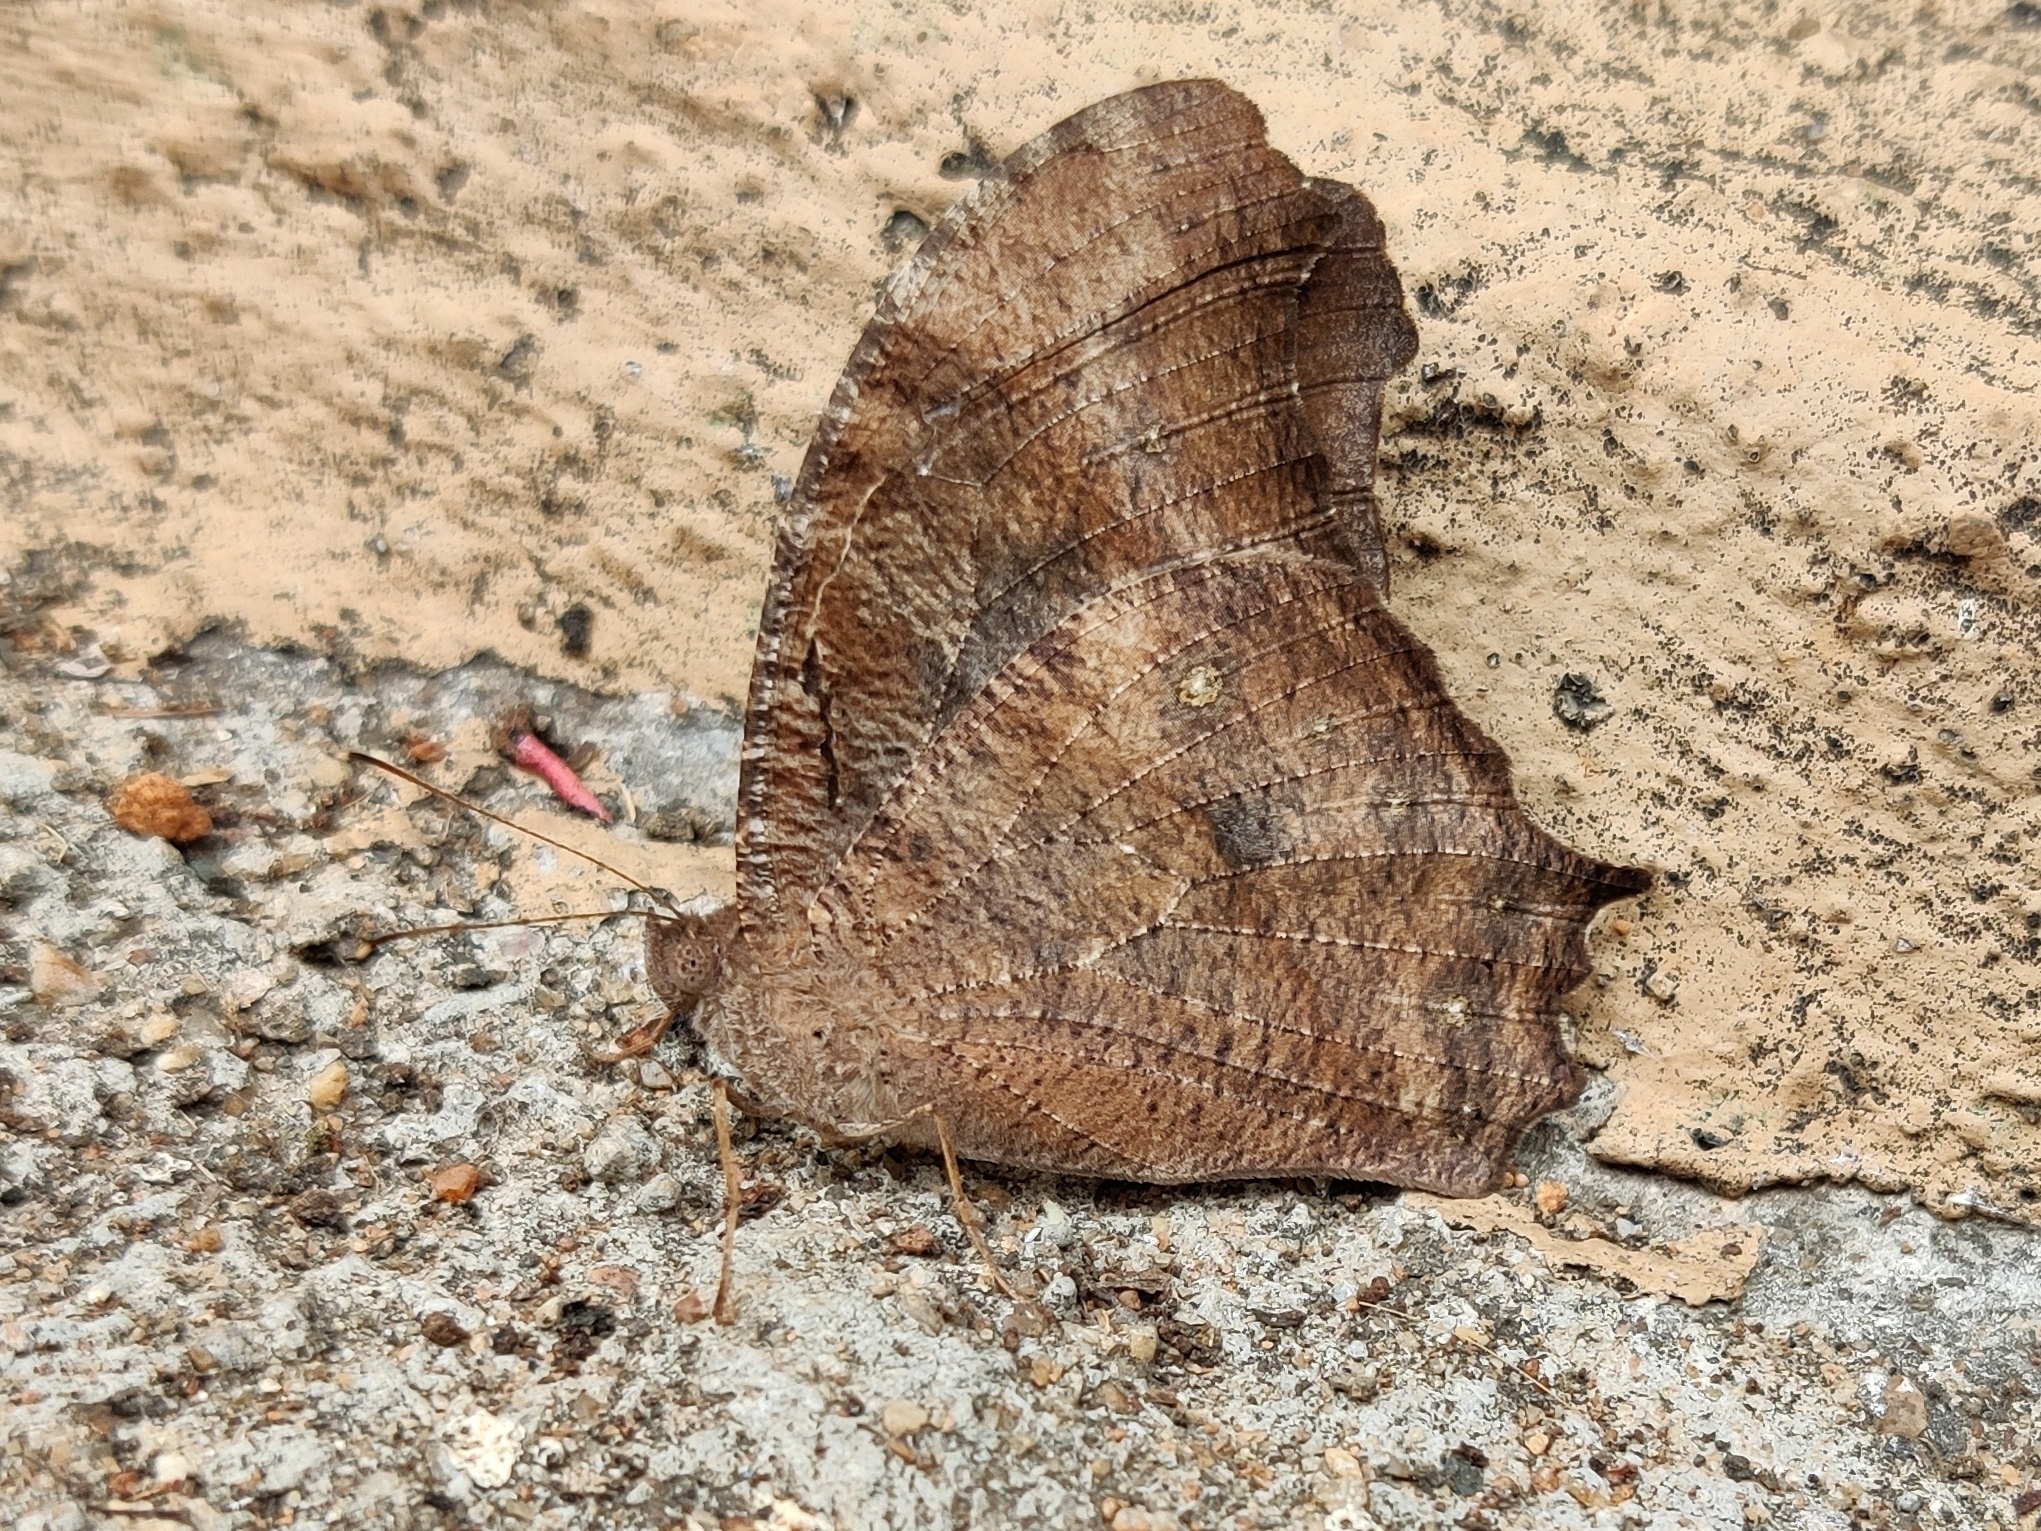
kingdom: Animalia
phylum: Arthropoda
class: Insecta
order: Lepidoptera
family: Nymphalidae
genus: Melanitis
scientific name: Melanitis leda
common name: Twilight brown
